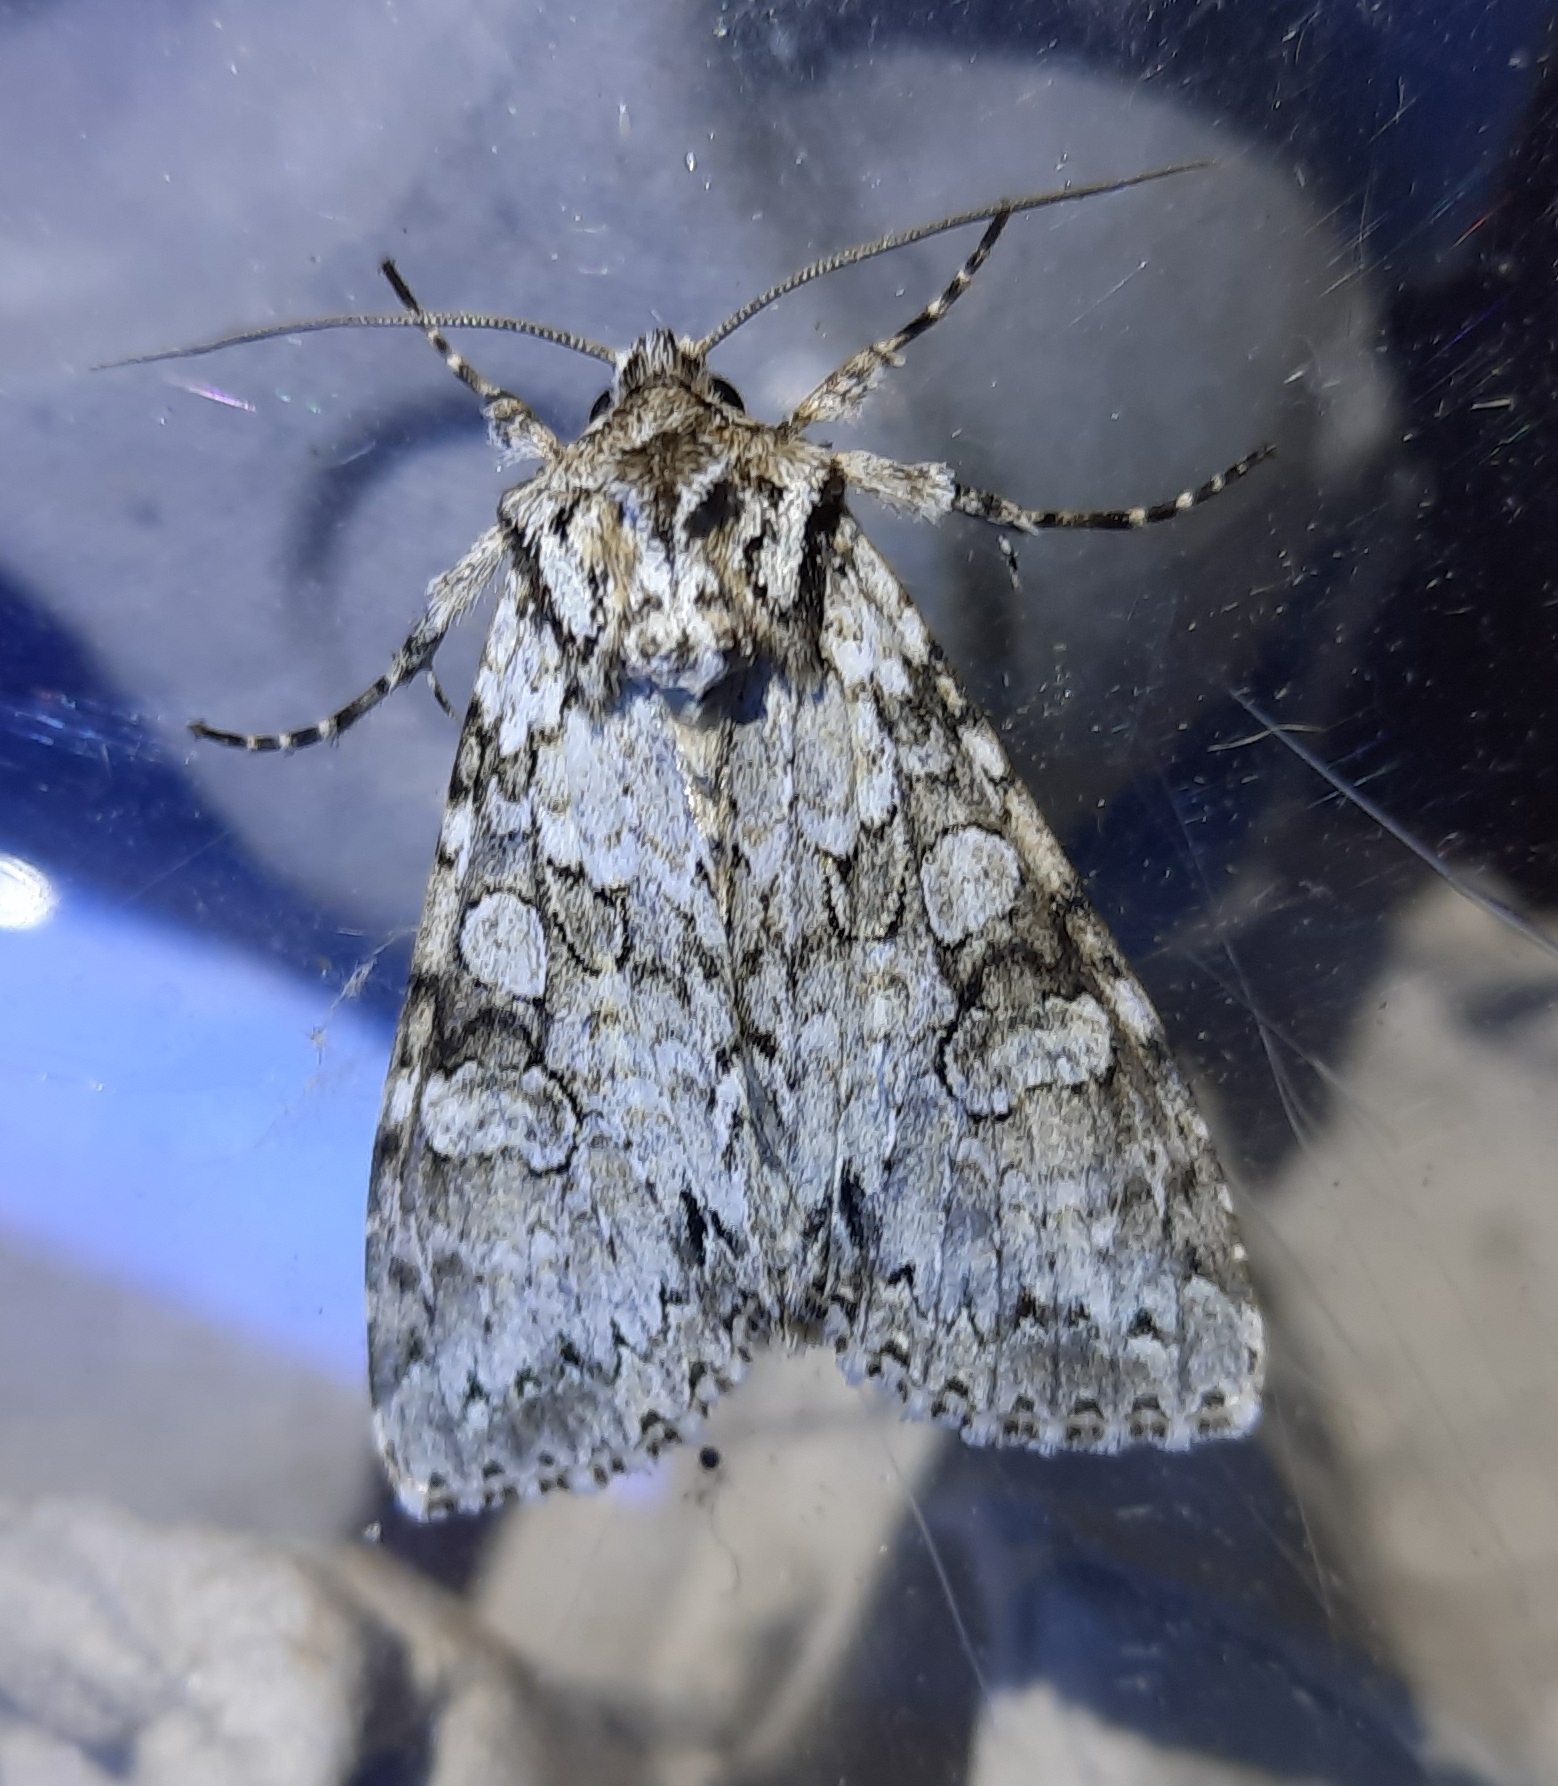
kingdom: Animalia
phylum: Arthropoda
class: Insecta
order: Lepidoptera
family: Noctuidae
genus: Polia
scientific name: Polia nebulosa
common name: Grey arches
